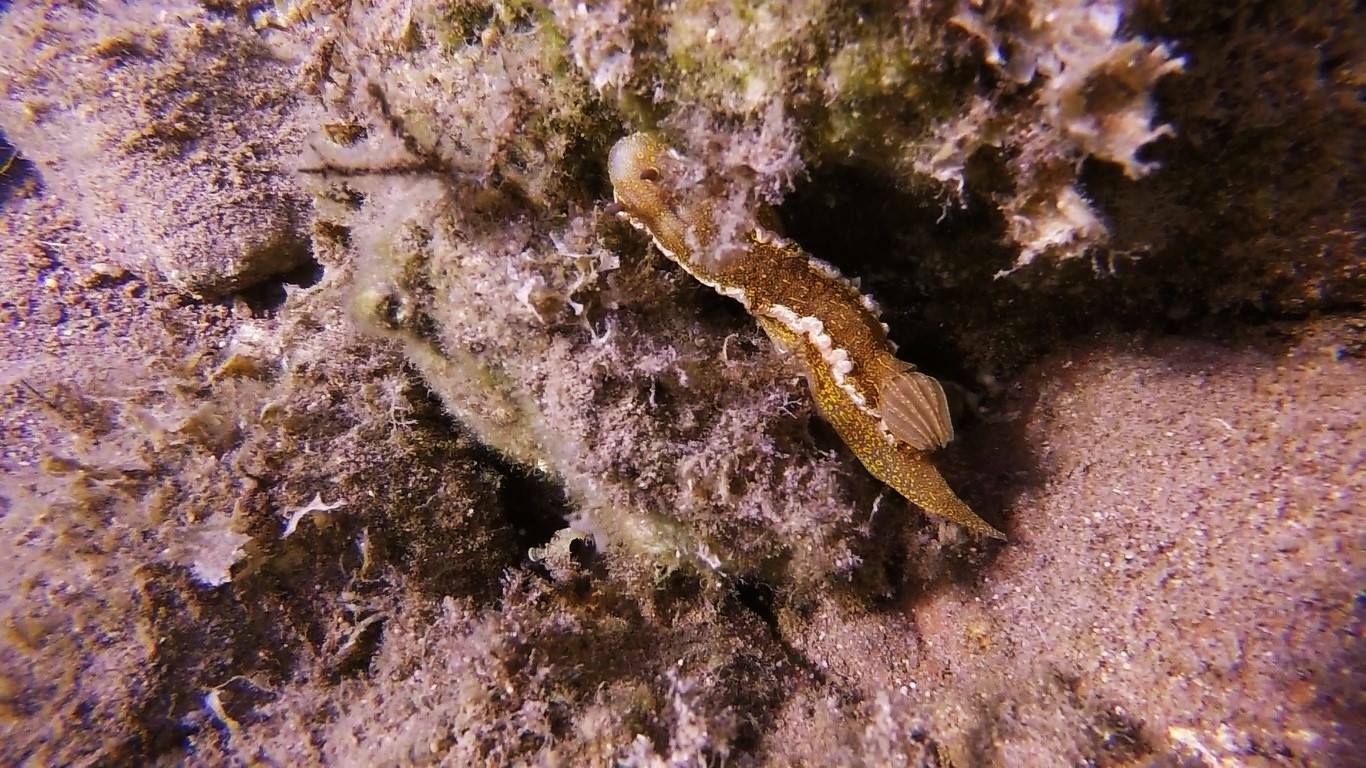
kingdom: Animalia
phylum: Mollusca
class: Gastropoda
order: Nudibranchia
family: Chromodorididae
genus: Felimare
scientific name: Felimare picta
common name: Giant doris
